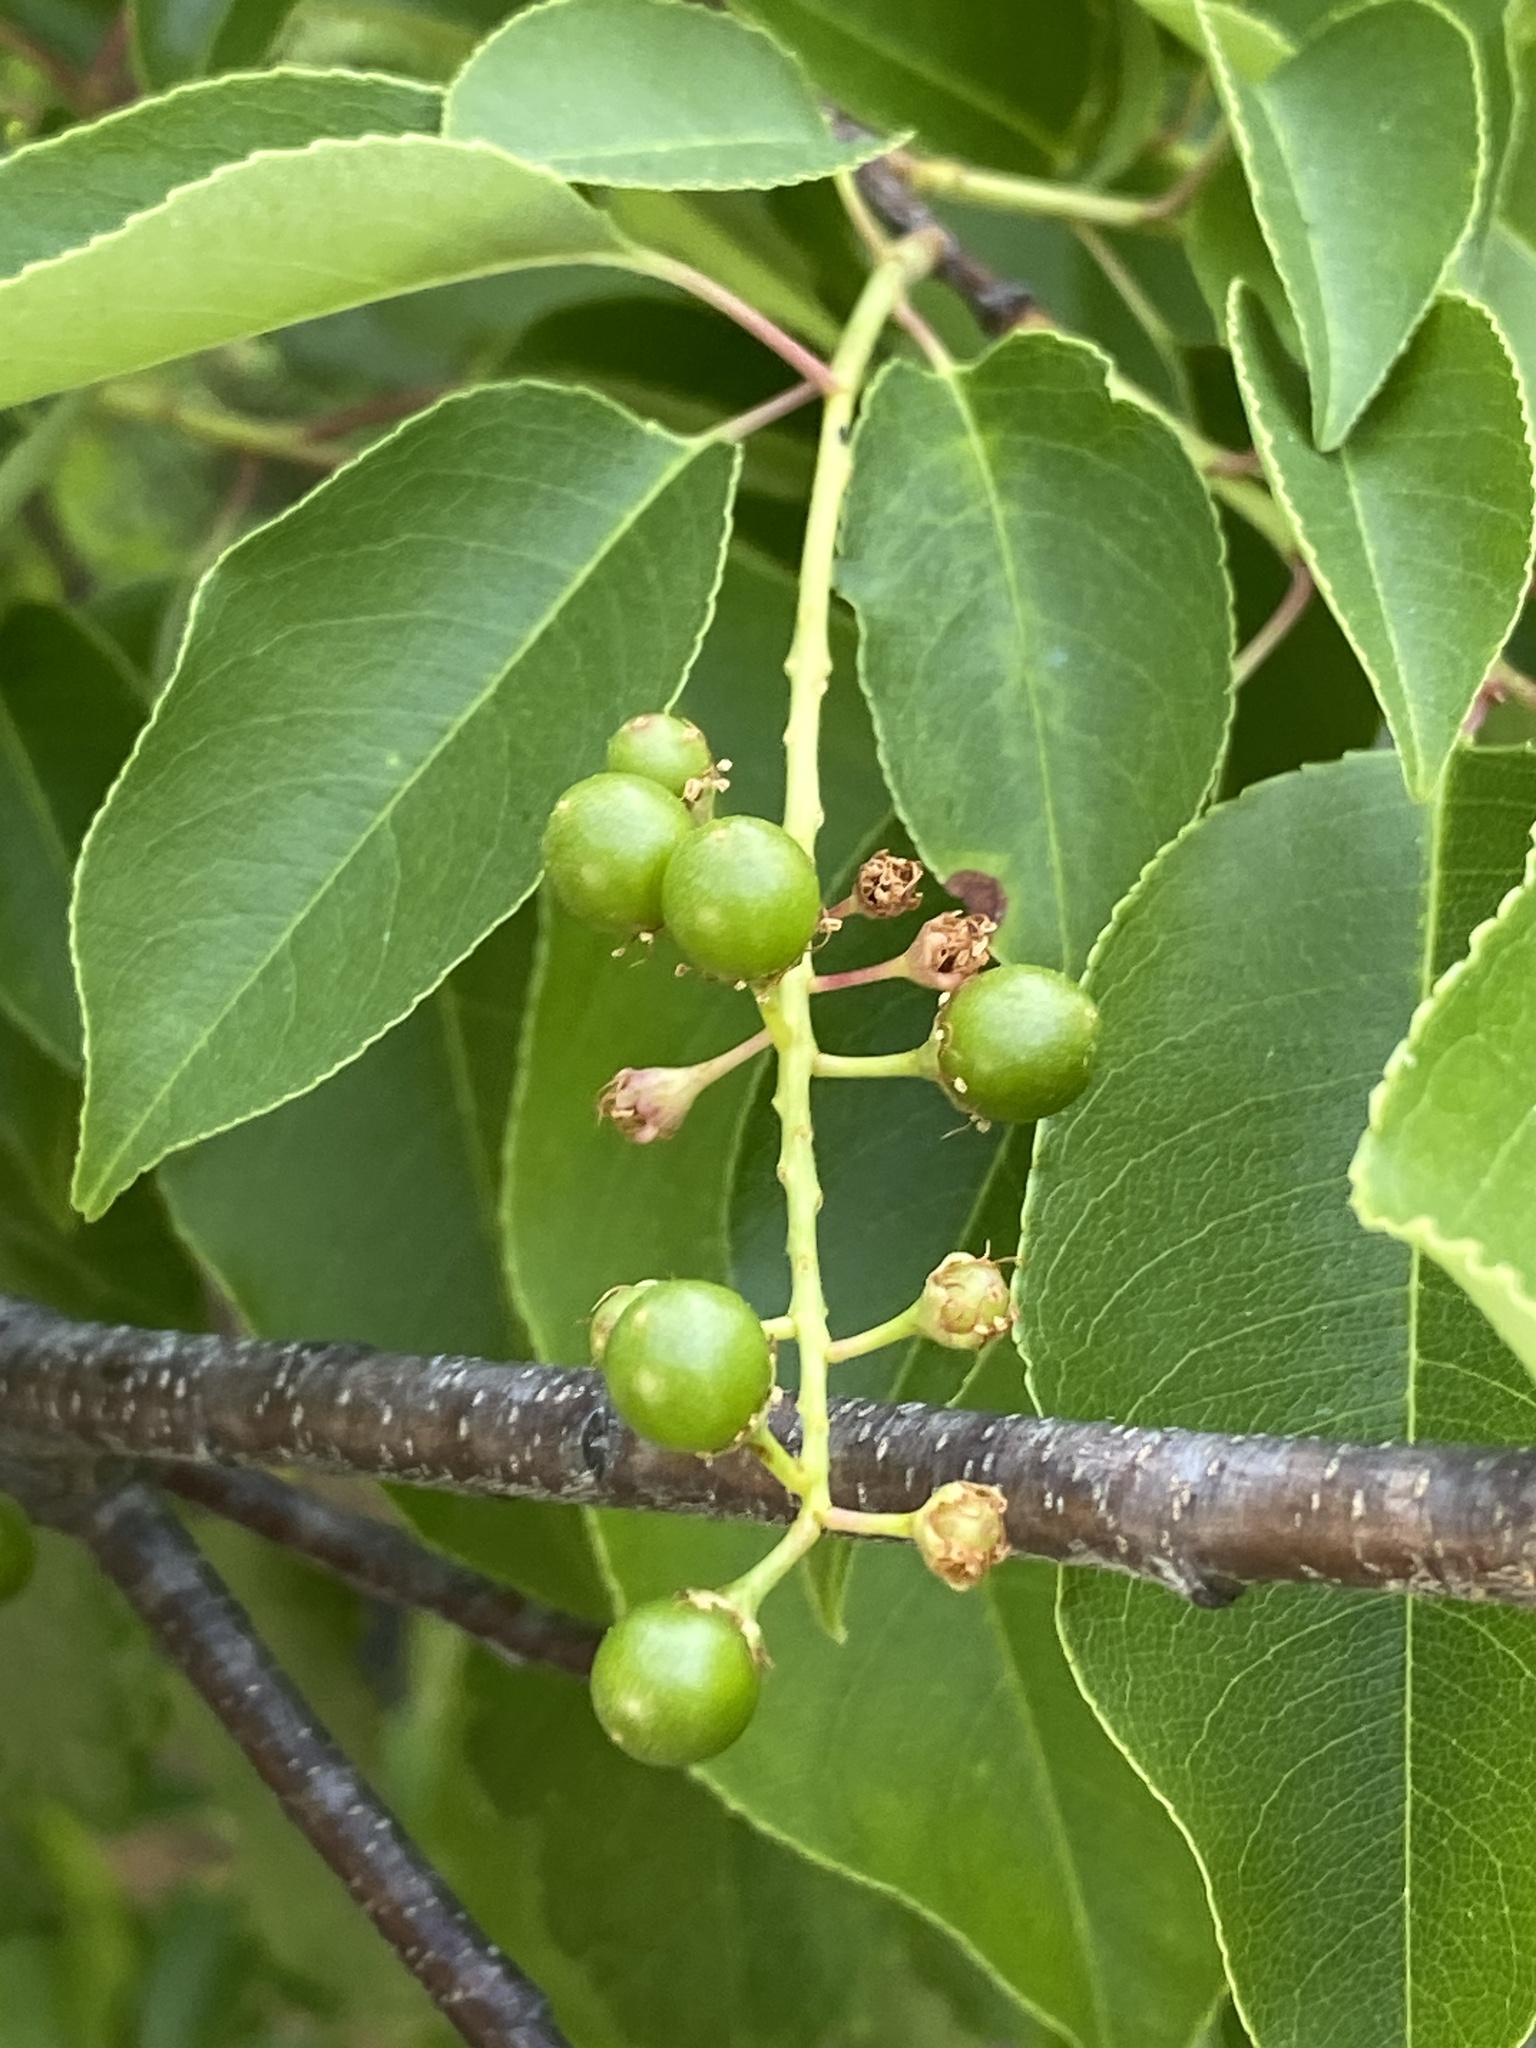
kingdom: Plantae
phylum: Tracheophyta
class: Magnoliopsida
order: Rosales
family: Rosaceae
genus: Prunus
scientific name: Prunus serotina
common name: Black cherry
